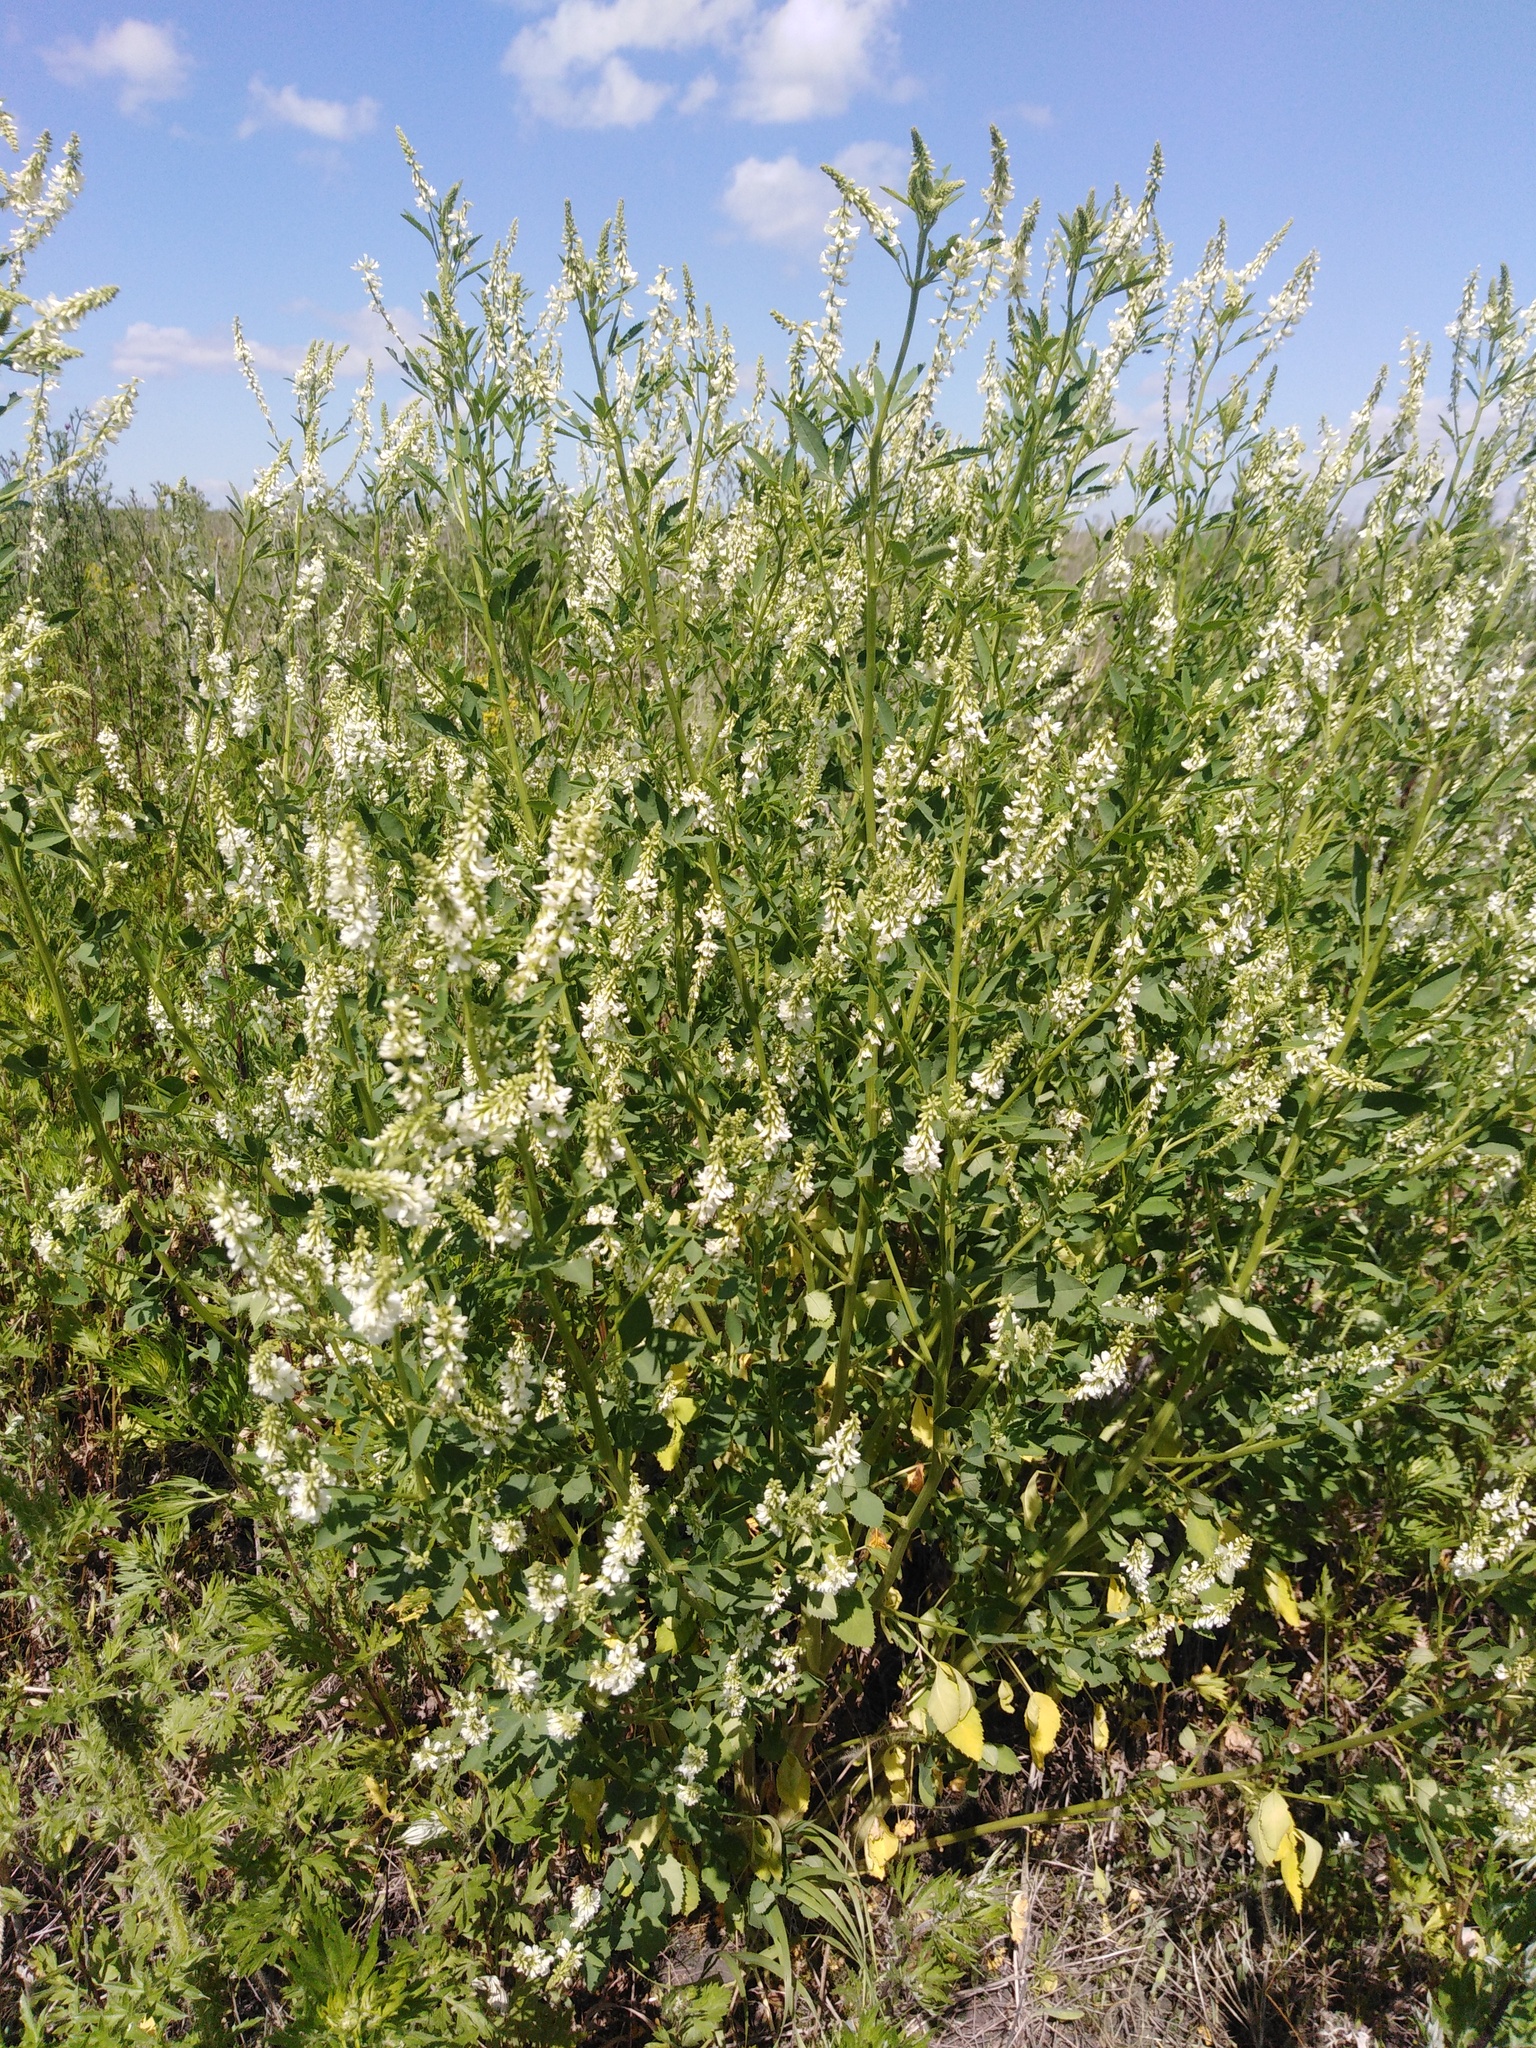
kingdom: Plantae
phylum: Tracheophyta
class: Magnoliopsida
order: Fabales
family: Fabaceae
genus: Melilotus
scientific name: Melilotus albus
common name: White melilot
